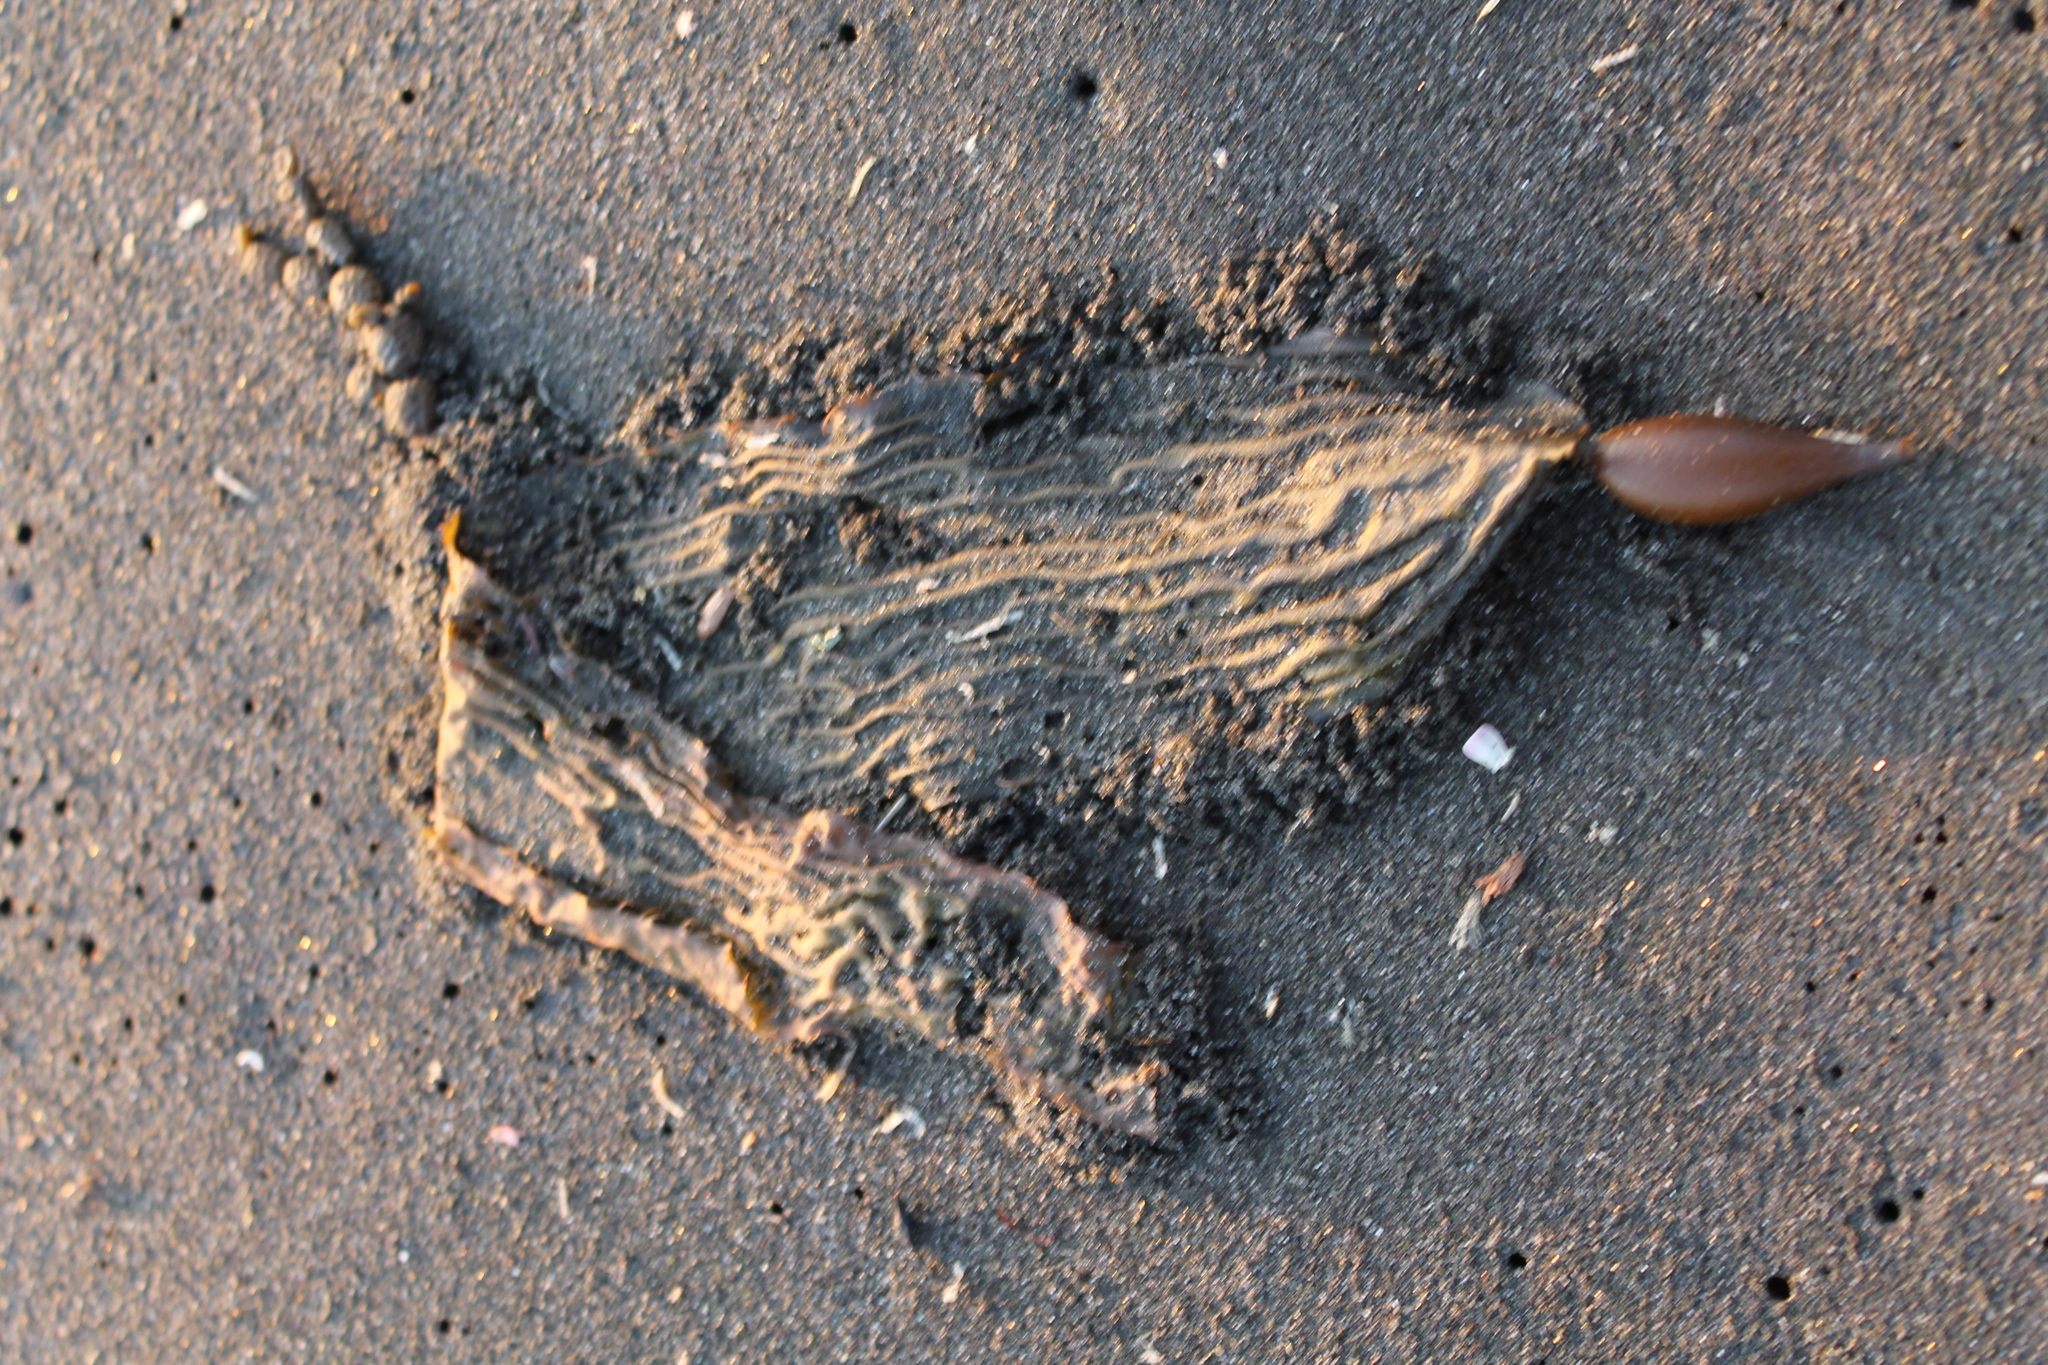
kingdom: Chromista
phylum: Ochrophyta
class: Phaeophyceae
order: Laminariales
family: Laminariaceae
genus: Macrocystis
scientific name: Macrocystis pyrifera
